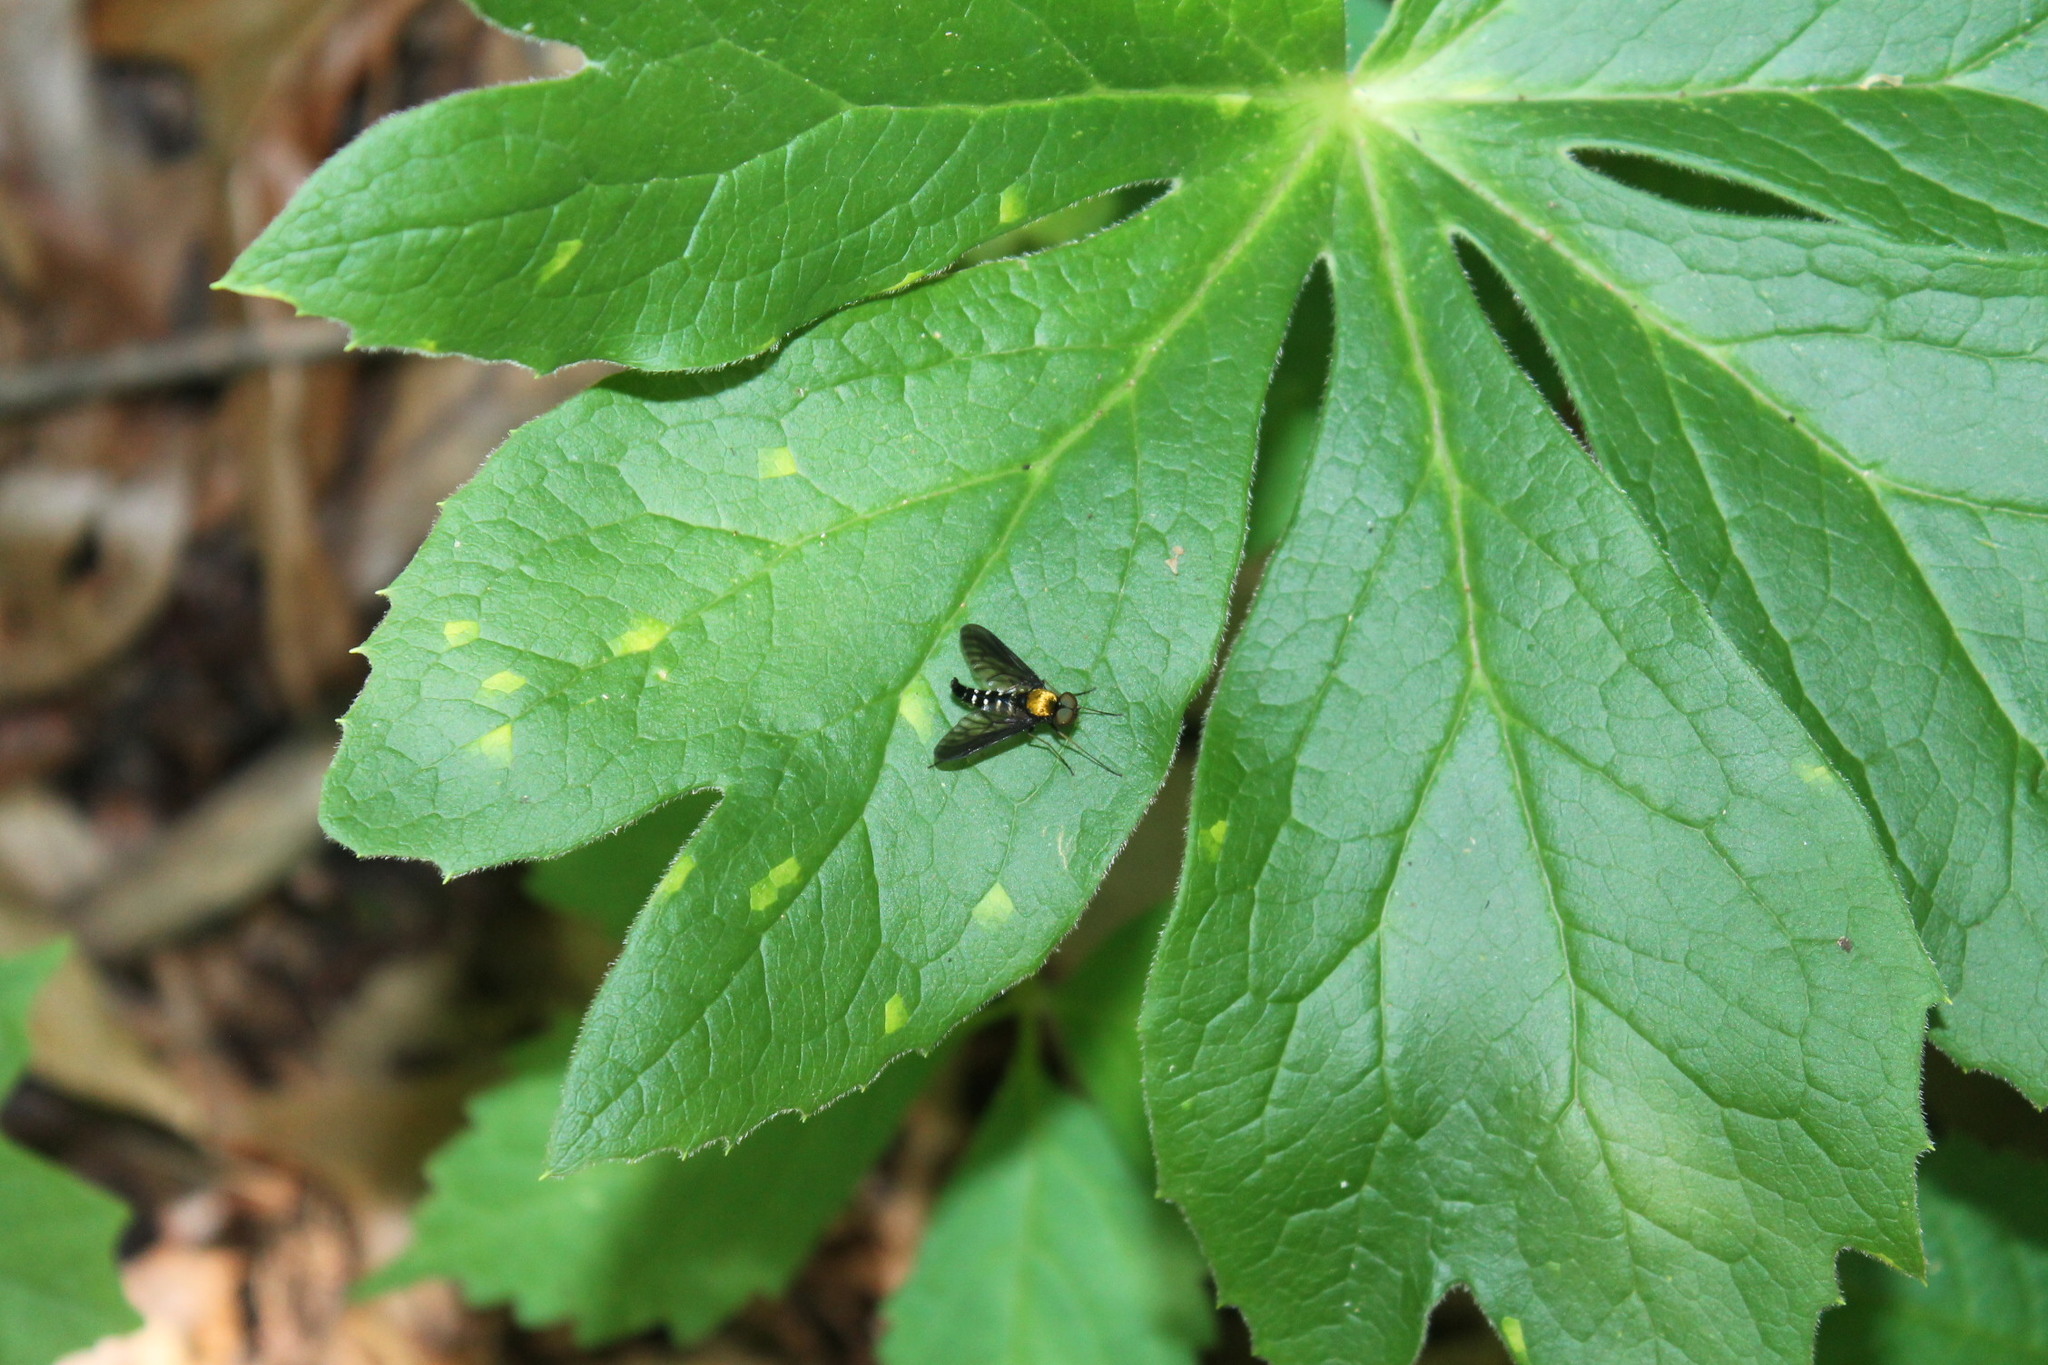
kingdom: Animalia
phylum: Arthropoda
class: Insecta
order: Diptera
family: Rhagionidae
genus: Chrysopilus
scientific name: Chrysopilus thoracicus
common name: Golden-backed snipe fly
